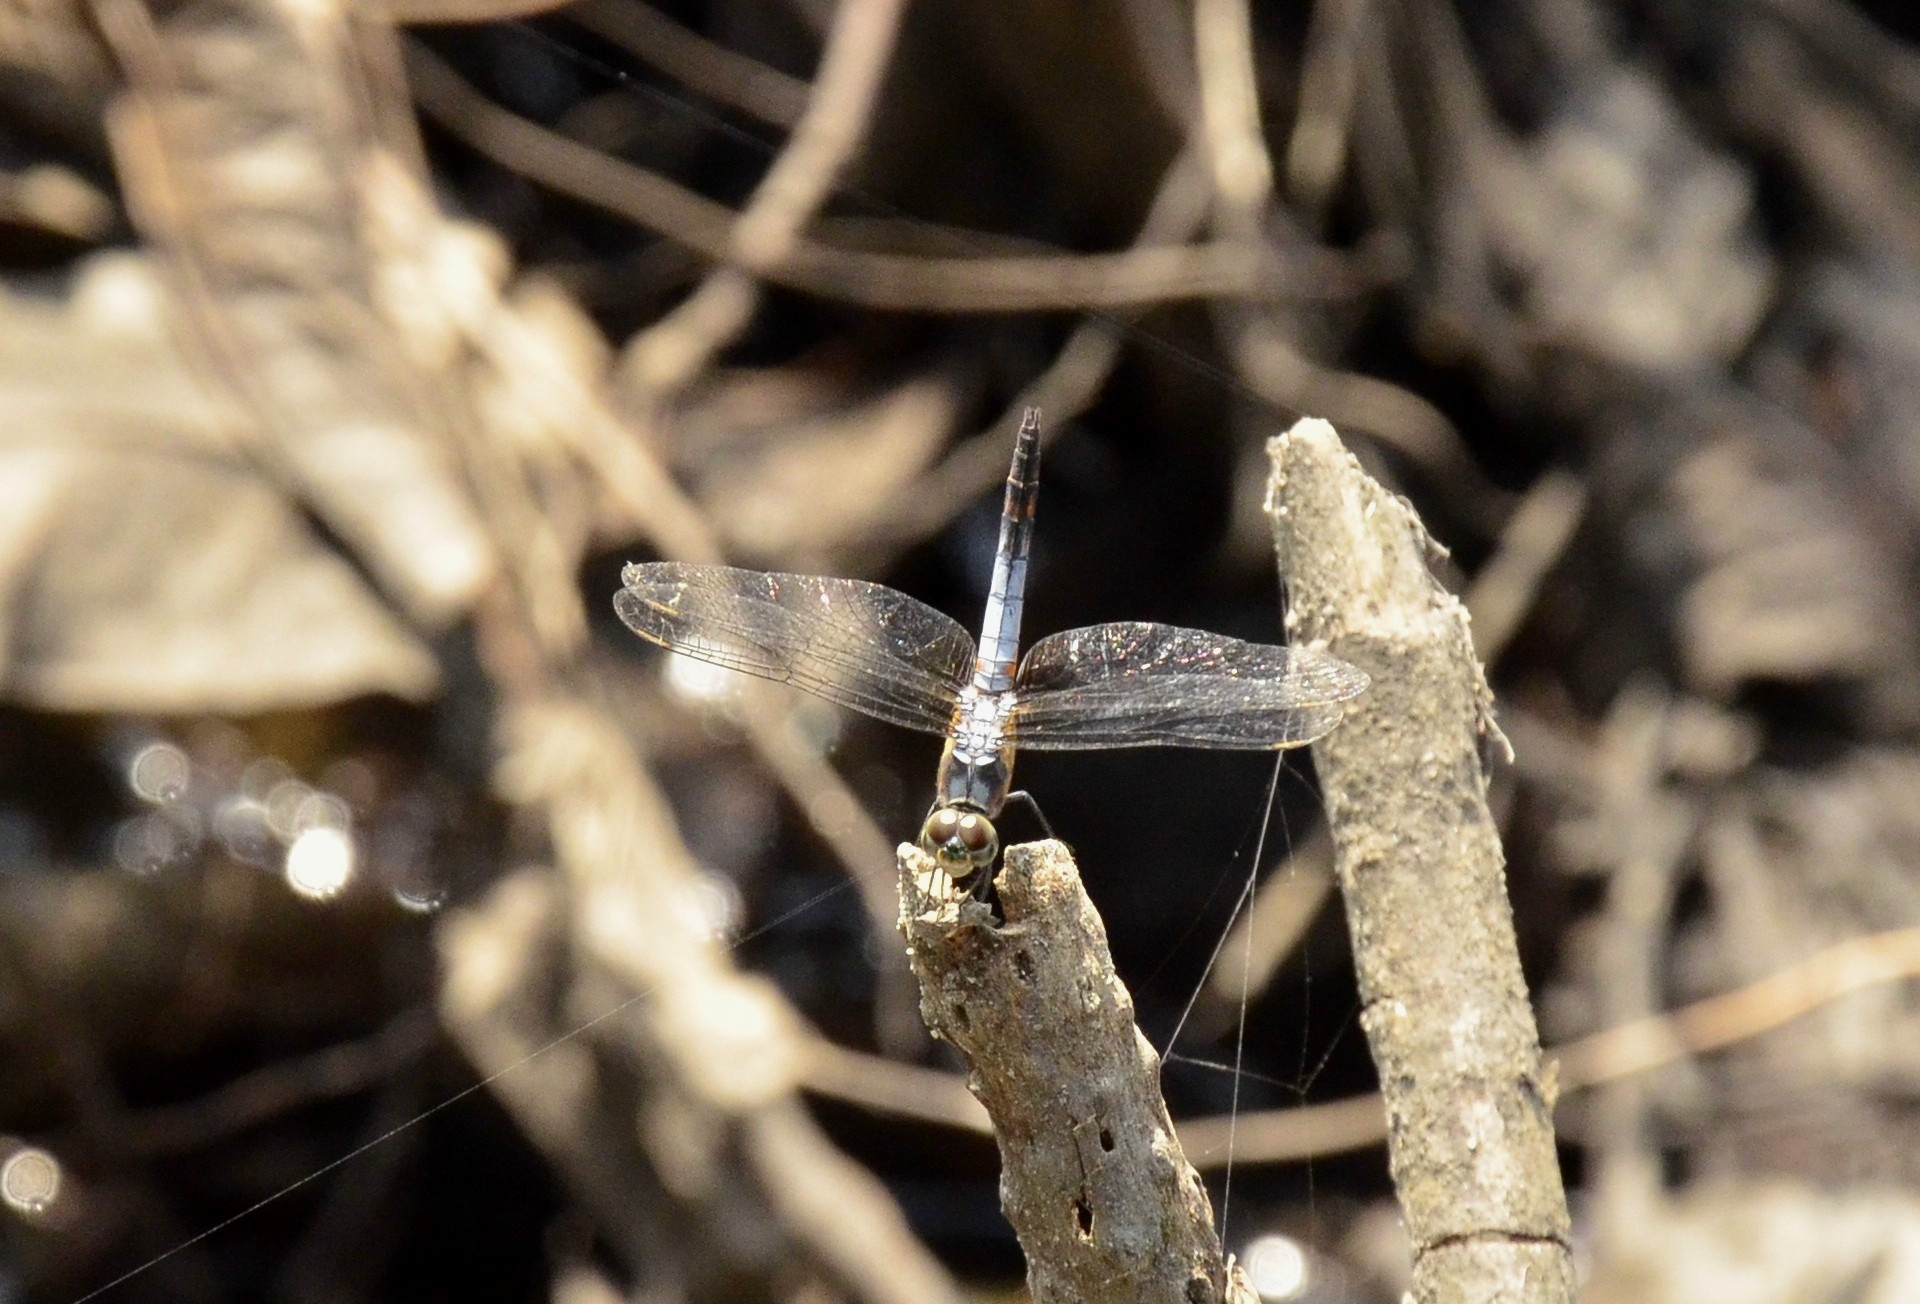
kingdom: Animalia
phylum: Arthropoda
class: Insecta
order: Odonata
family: Libellulidae
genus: Brachydiplax
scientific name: Brachydiplax chalybea
